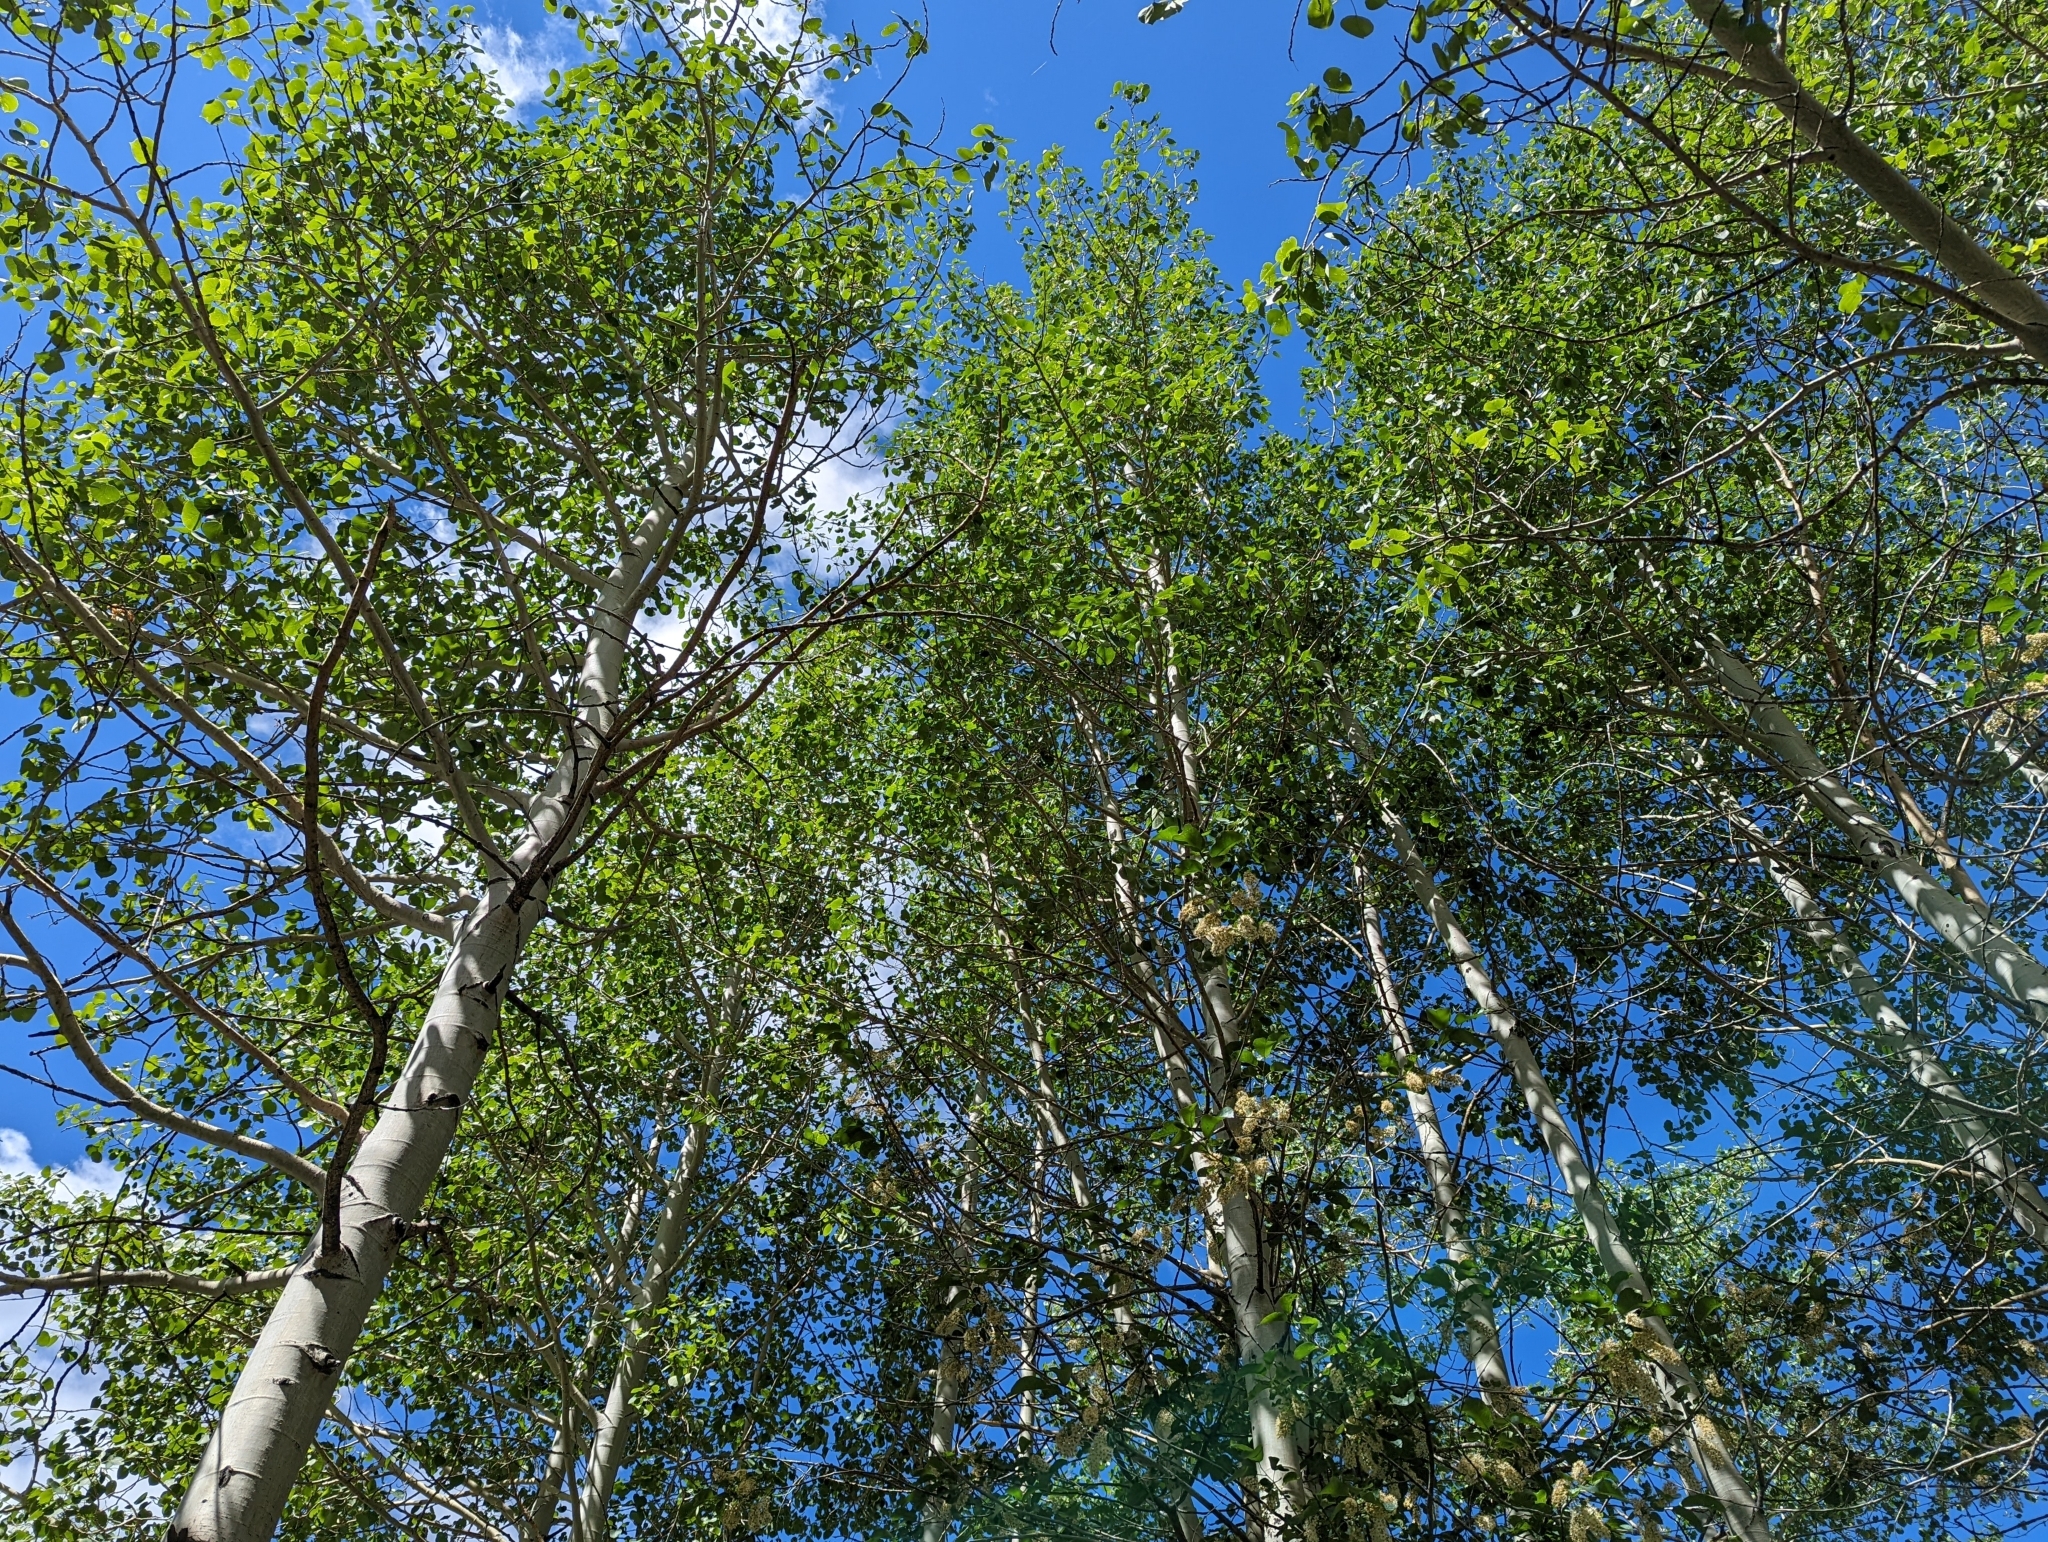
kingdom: Plantae
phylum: Tracheophyta
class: Magnoliopsida
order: Malpighiales
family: Salicaceae
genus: Populus
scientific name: Populus tremuloides
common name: Quaking aspen
